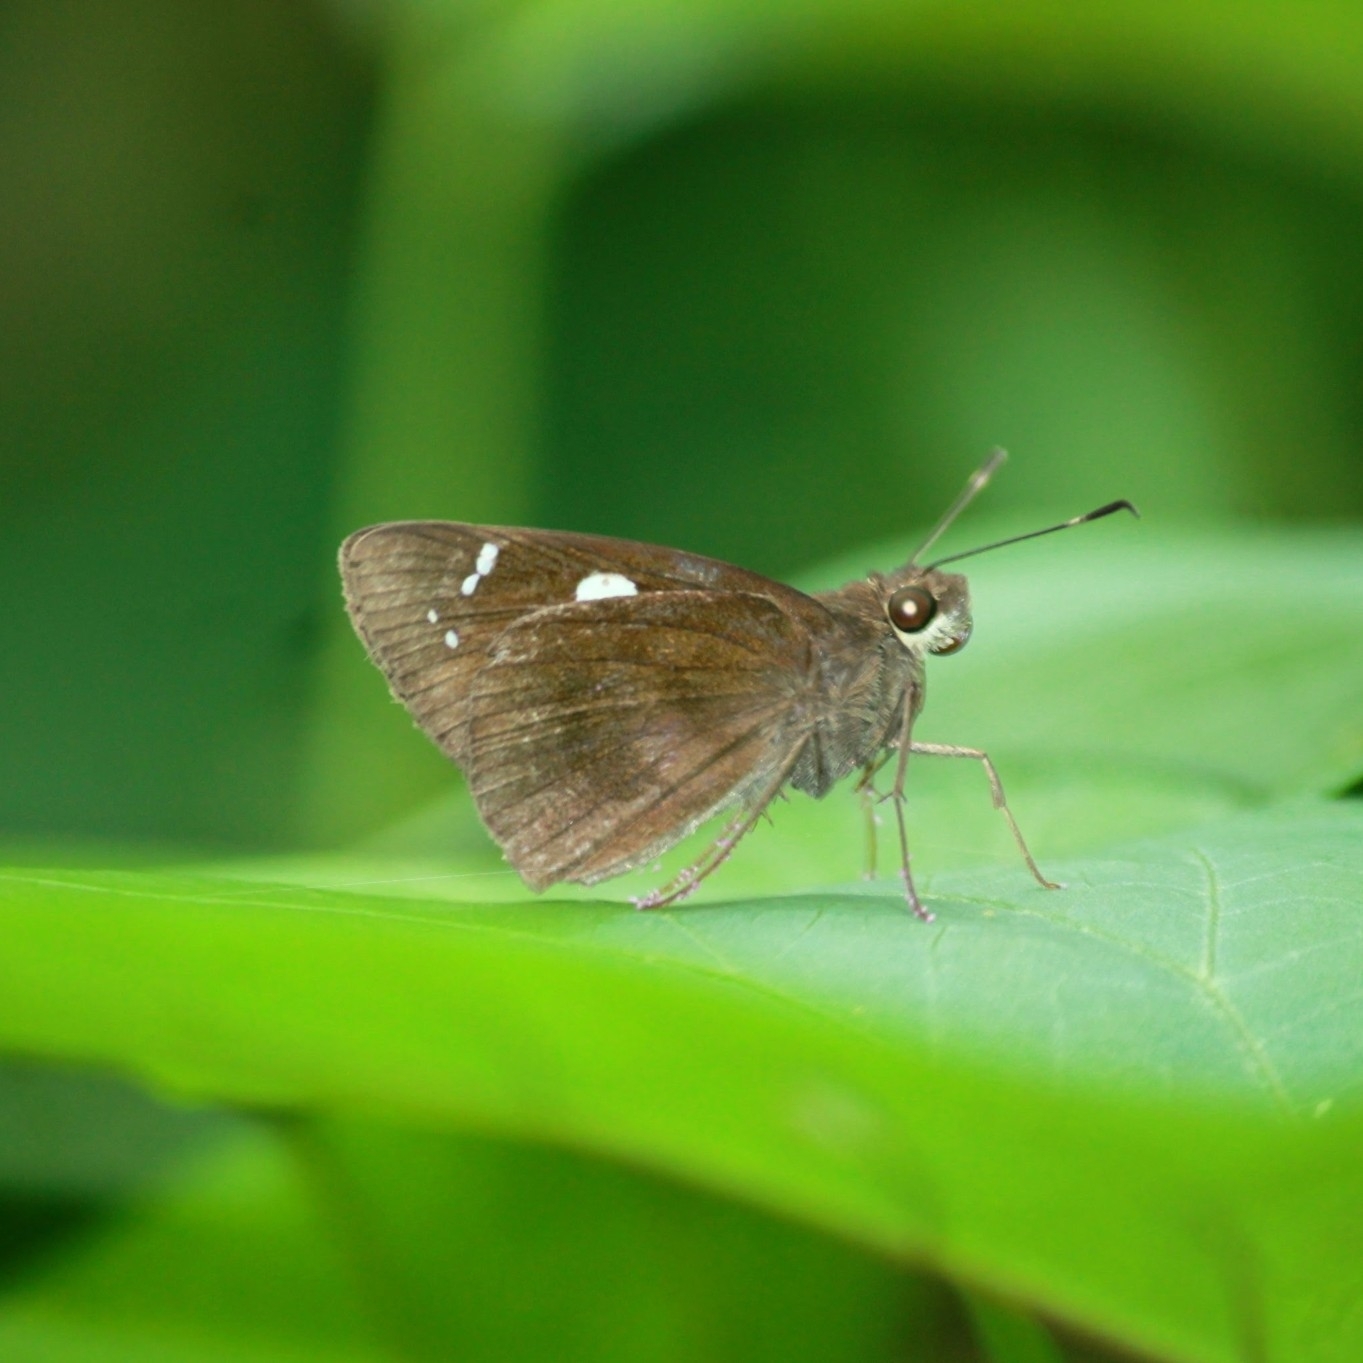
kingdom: Animalia
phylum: Arthropoda
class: Insecta
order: Lepidoptera
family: Hesperiidae
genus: Notocrypta
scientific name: Notocrypta curvifascia
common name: Restricted demon
